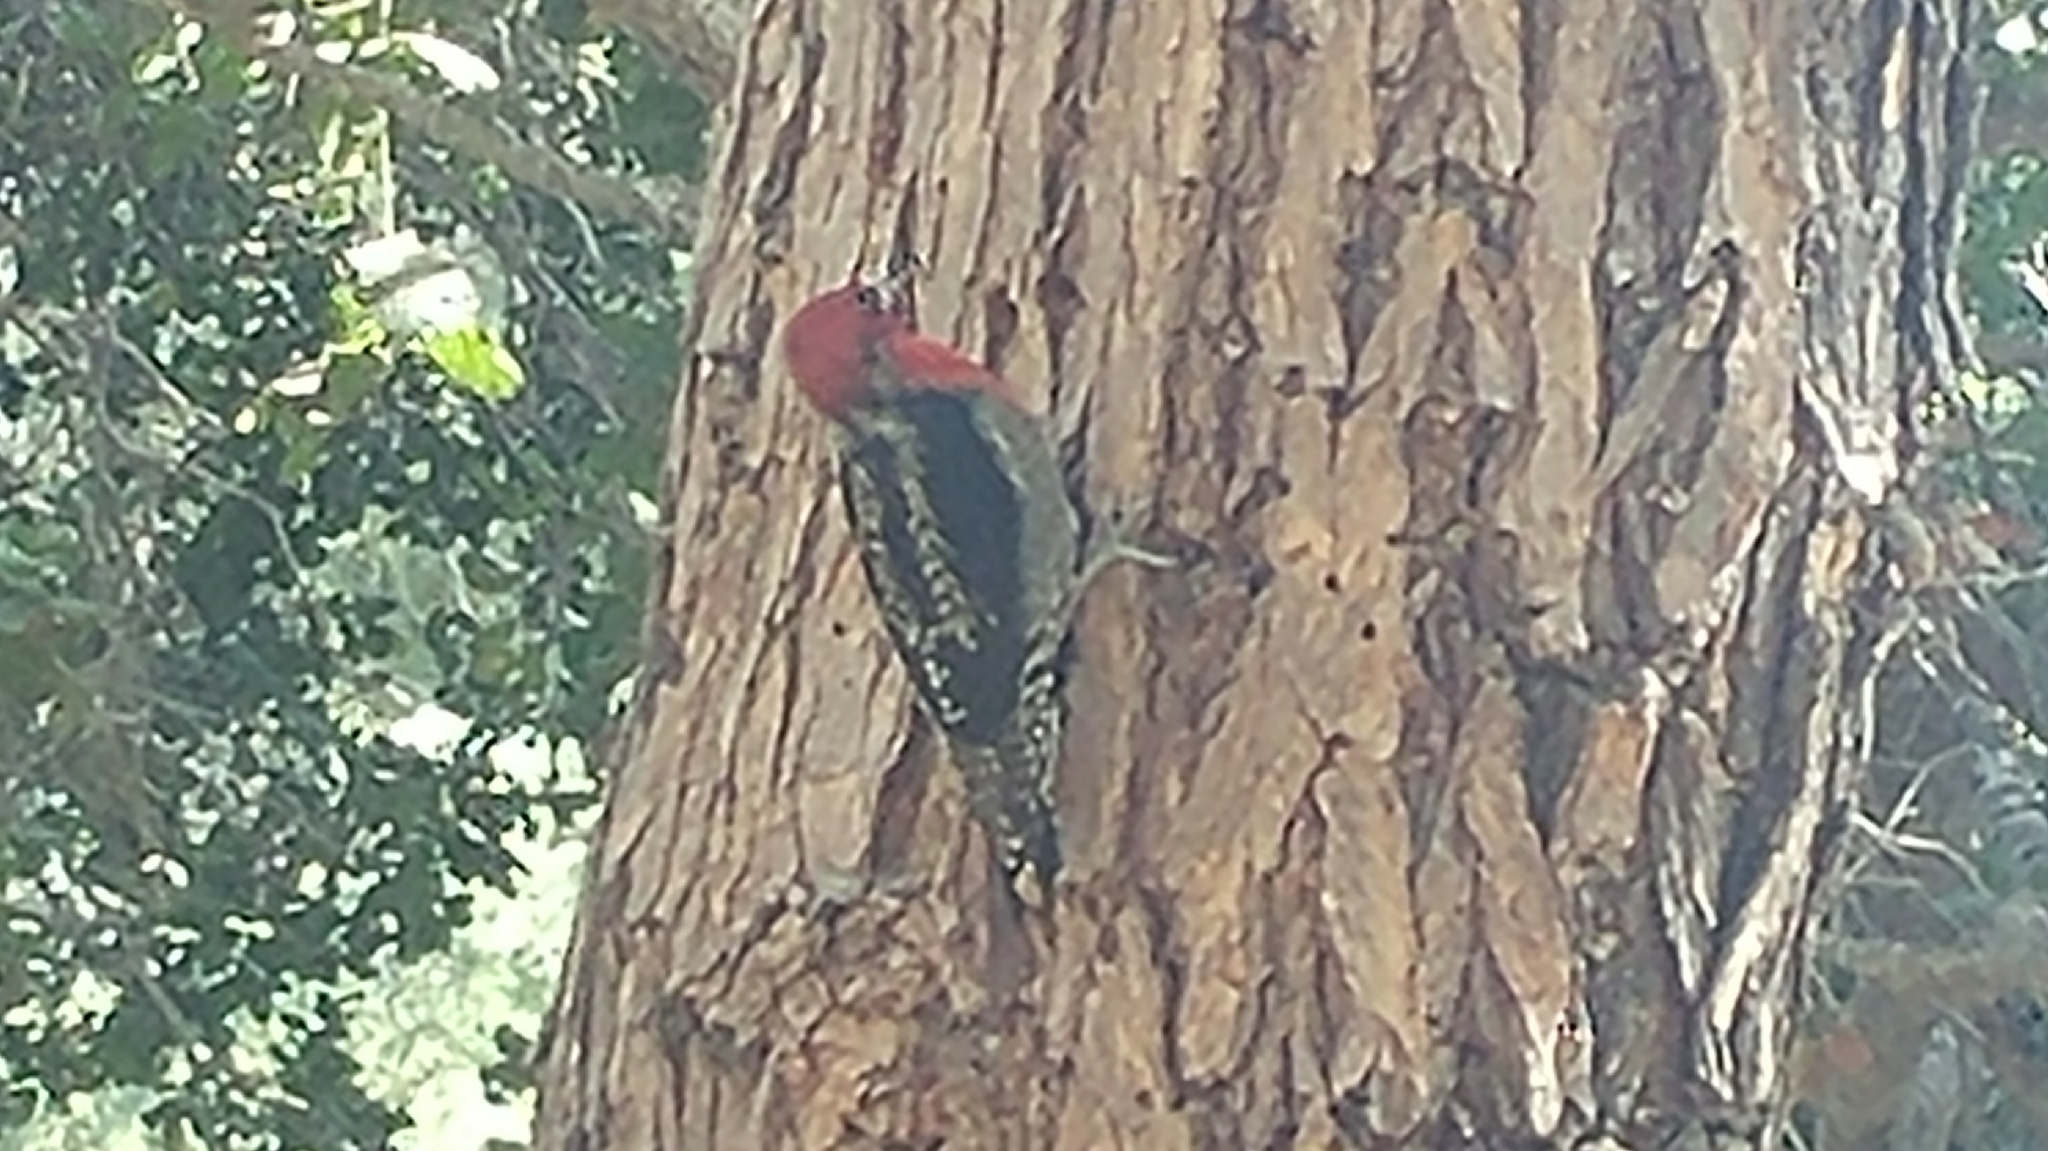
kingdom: Animalia
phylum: Chordata
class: Aves
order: Piciformes
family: Picidae
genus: Sphyrapicus
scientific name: Sphyrapicus ruber
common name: Red-breasted sapsucker
